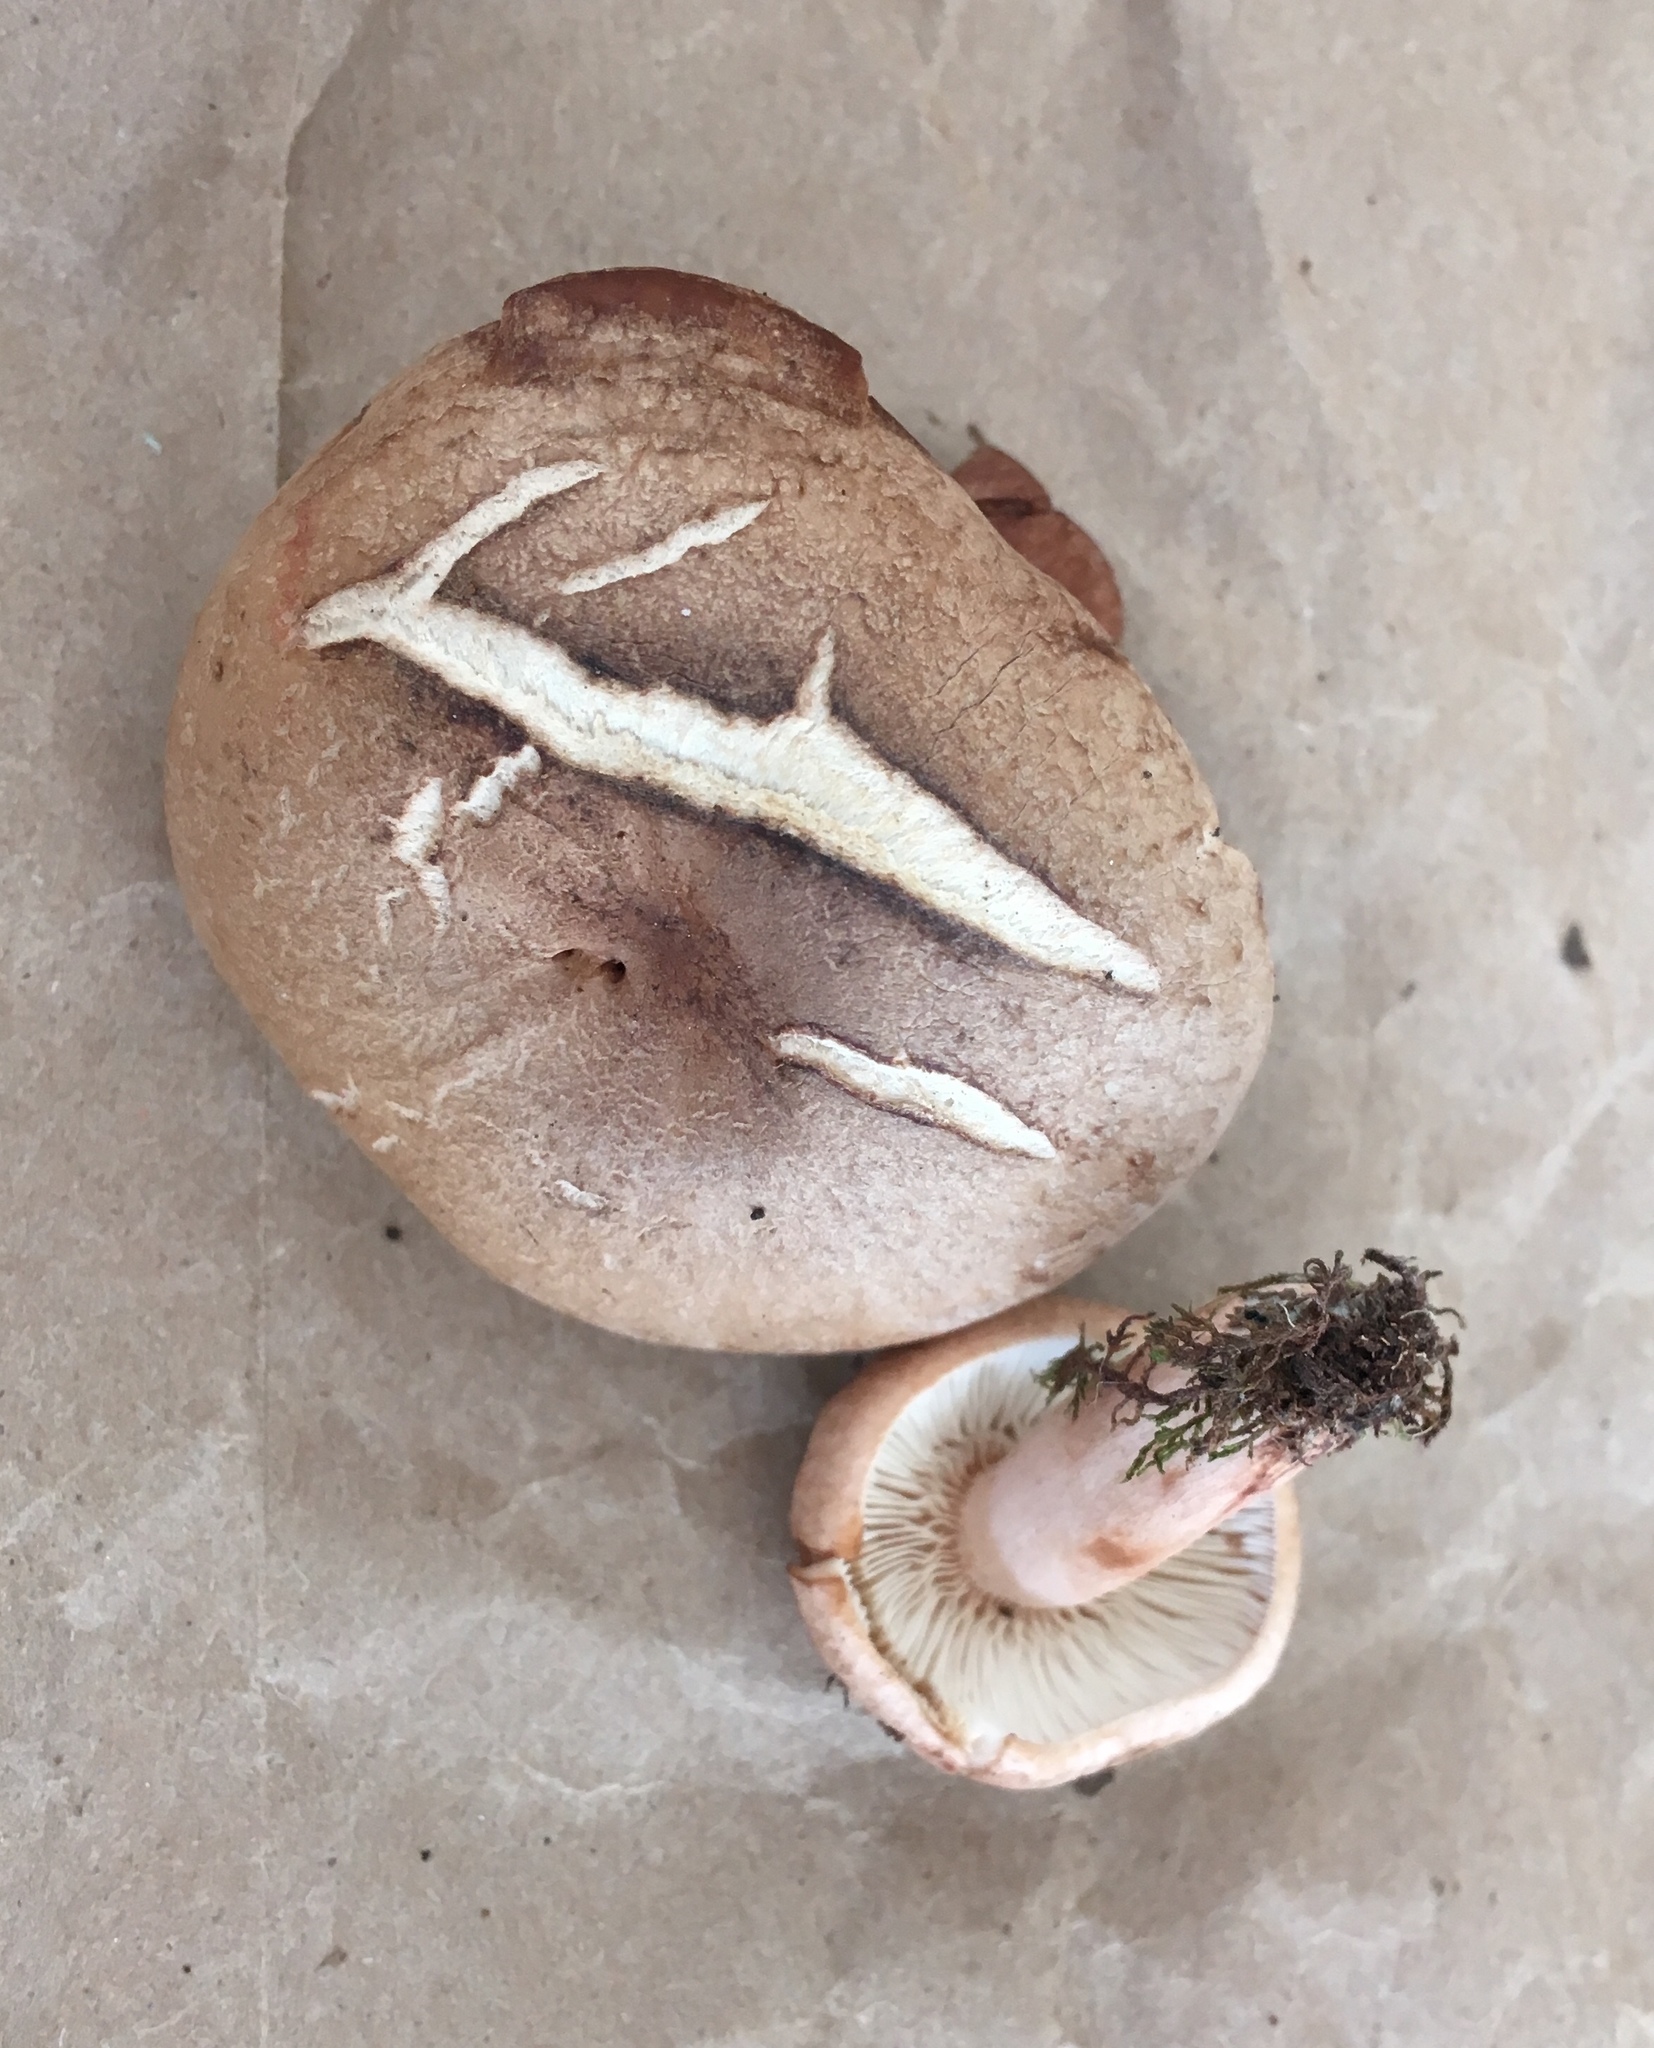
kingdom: Fungi
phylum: Basidiomycota
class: Agaricomycetes
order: Russulales
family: Russulaceae
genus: Lactarius
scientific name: Lactarius corrugis
